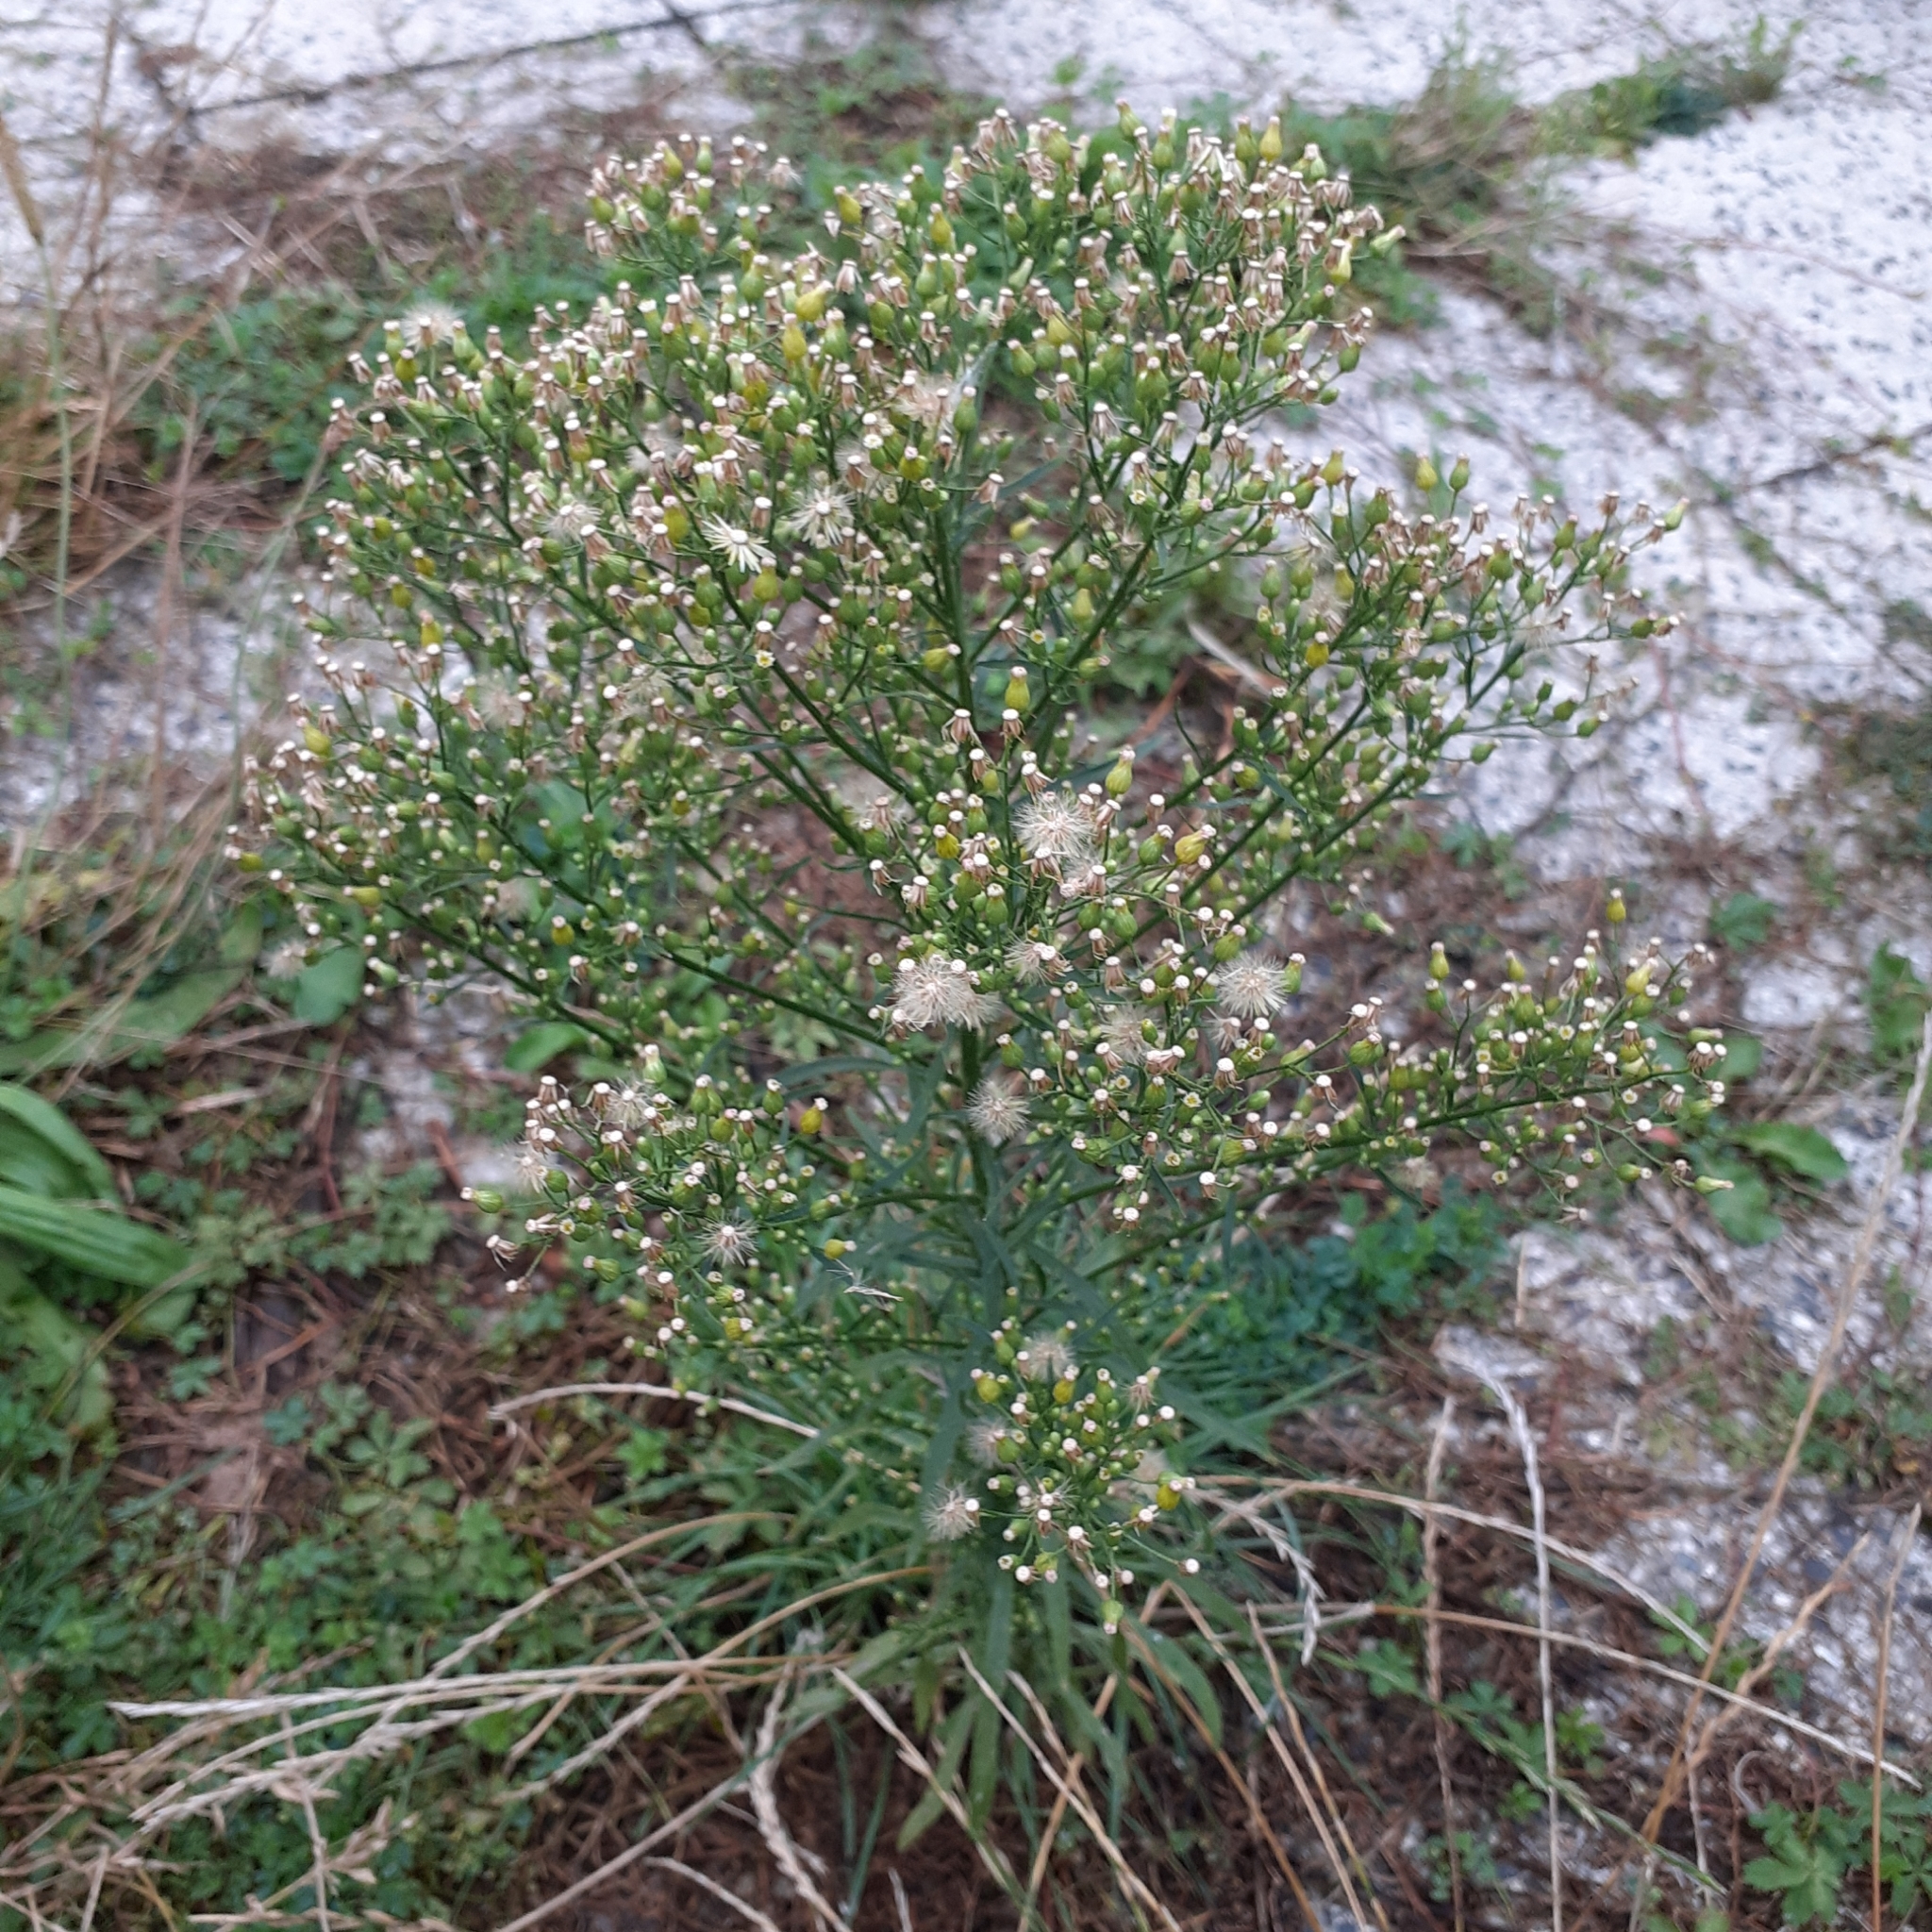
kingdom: Plantae
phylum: Tracheophyta
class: Magnoliopsida
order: Asterales
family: Asteraceae
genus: Erigeron
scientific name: Erigeron canadensis
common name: Canadian fleabane
